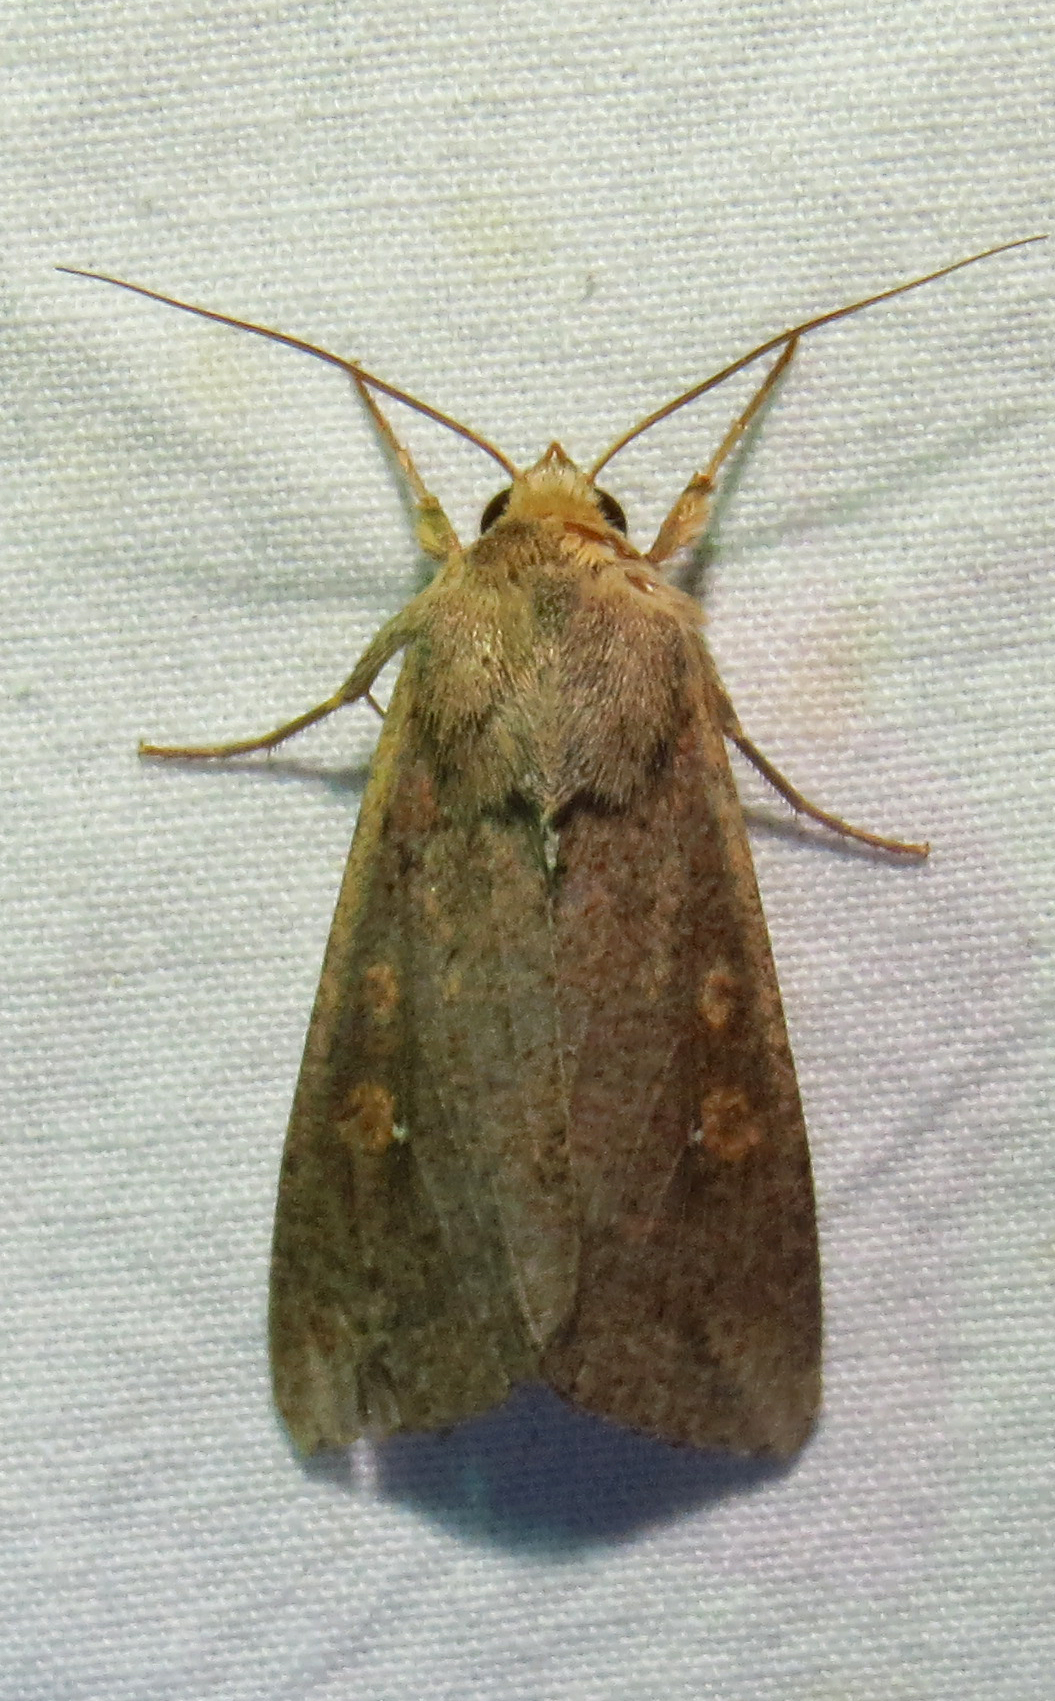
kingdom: Animalia
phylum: Arthropoda
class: Insecta
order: Lepidoptera
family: Noctuidae
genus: Mythimna
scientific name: Mythimna unipuncta
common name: White-speck
